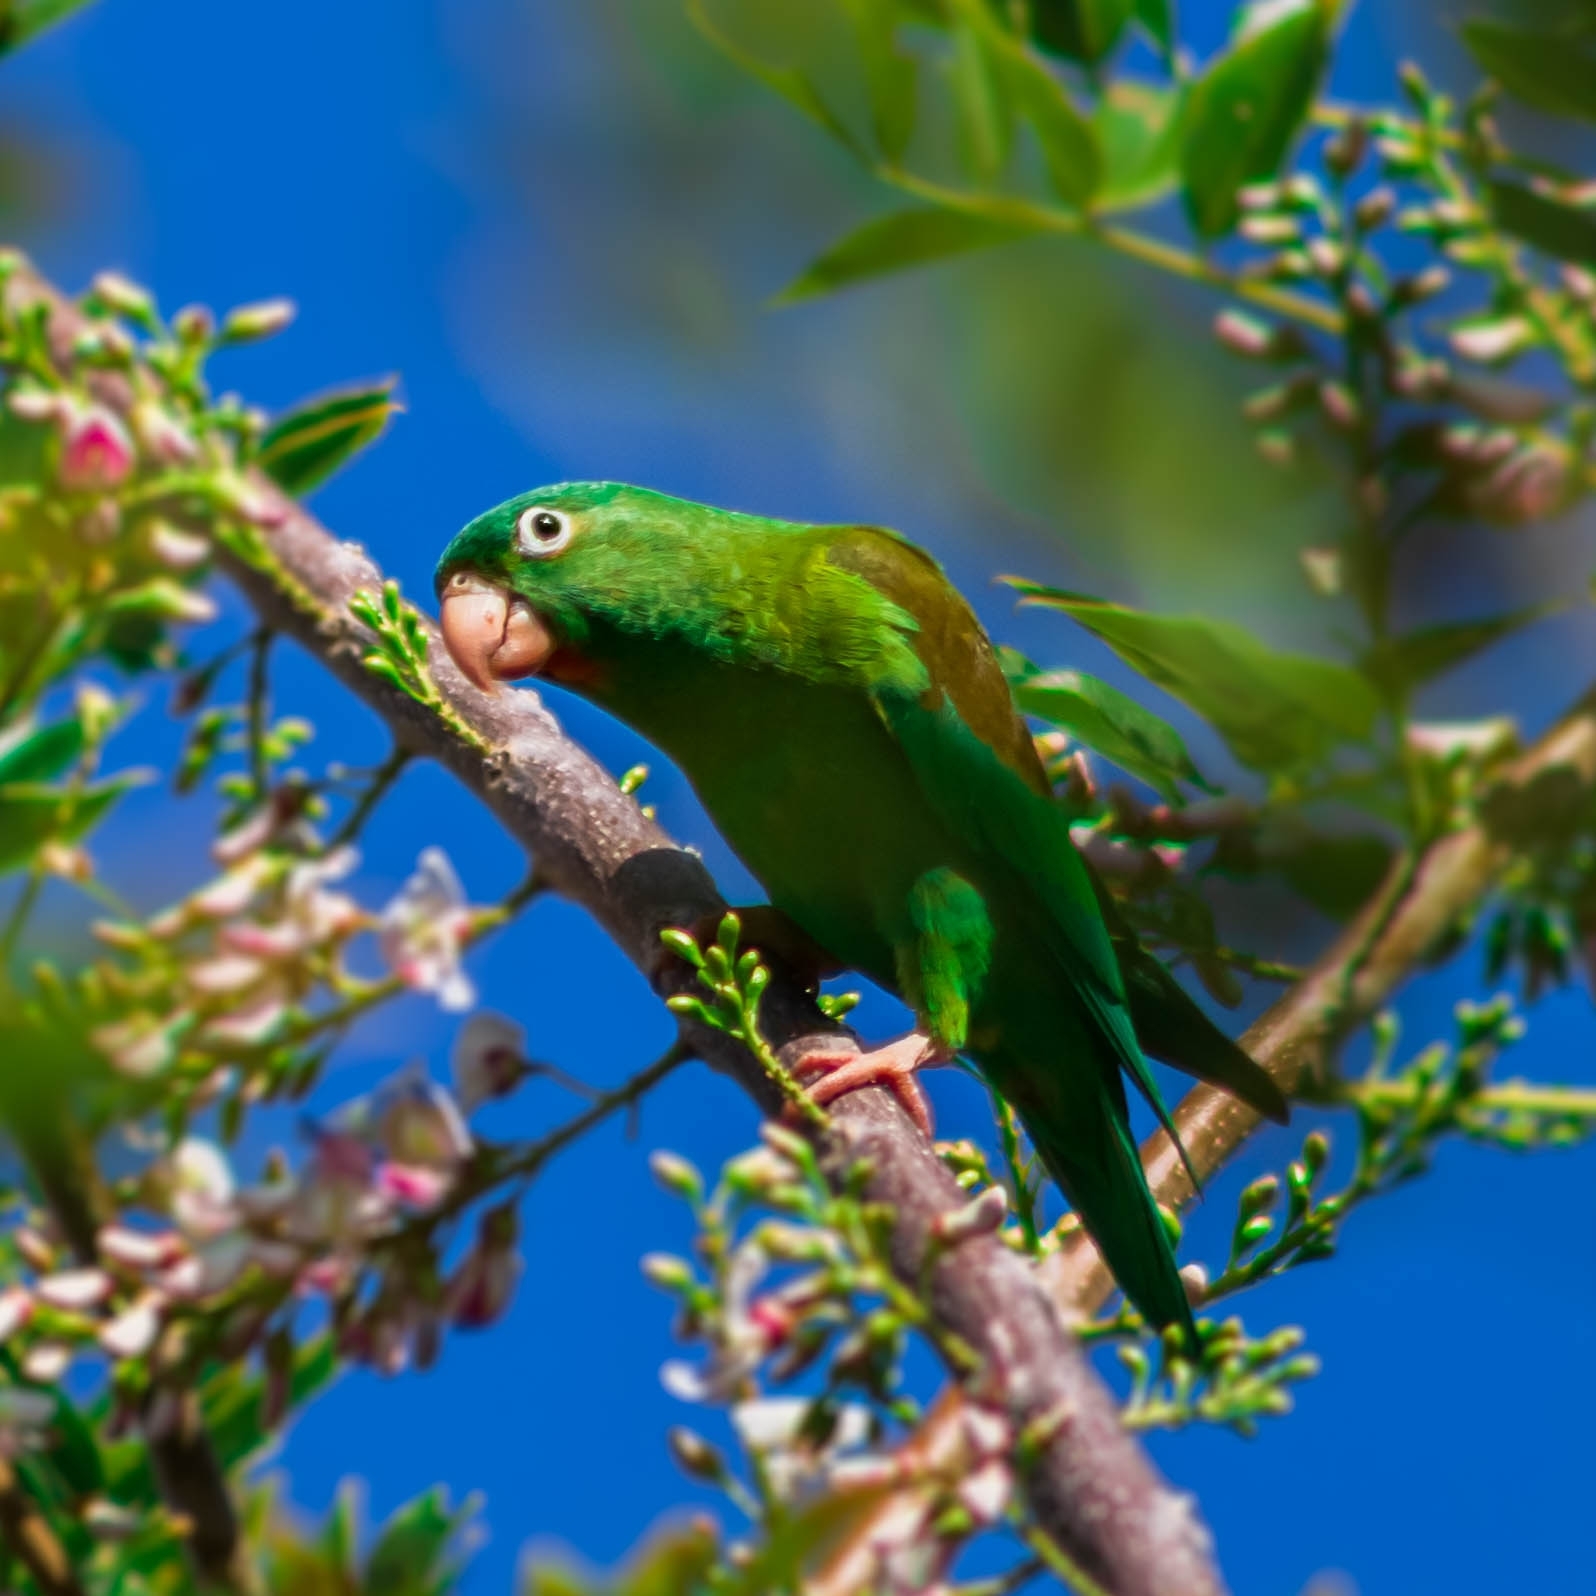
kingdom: Animalia
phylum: Chordata
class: Aves
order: Psittaciformes
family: Psittacidae
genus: Brotogeris
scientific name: Brotogeris jugularis
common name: Orange-chinned parakeet
